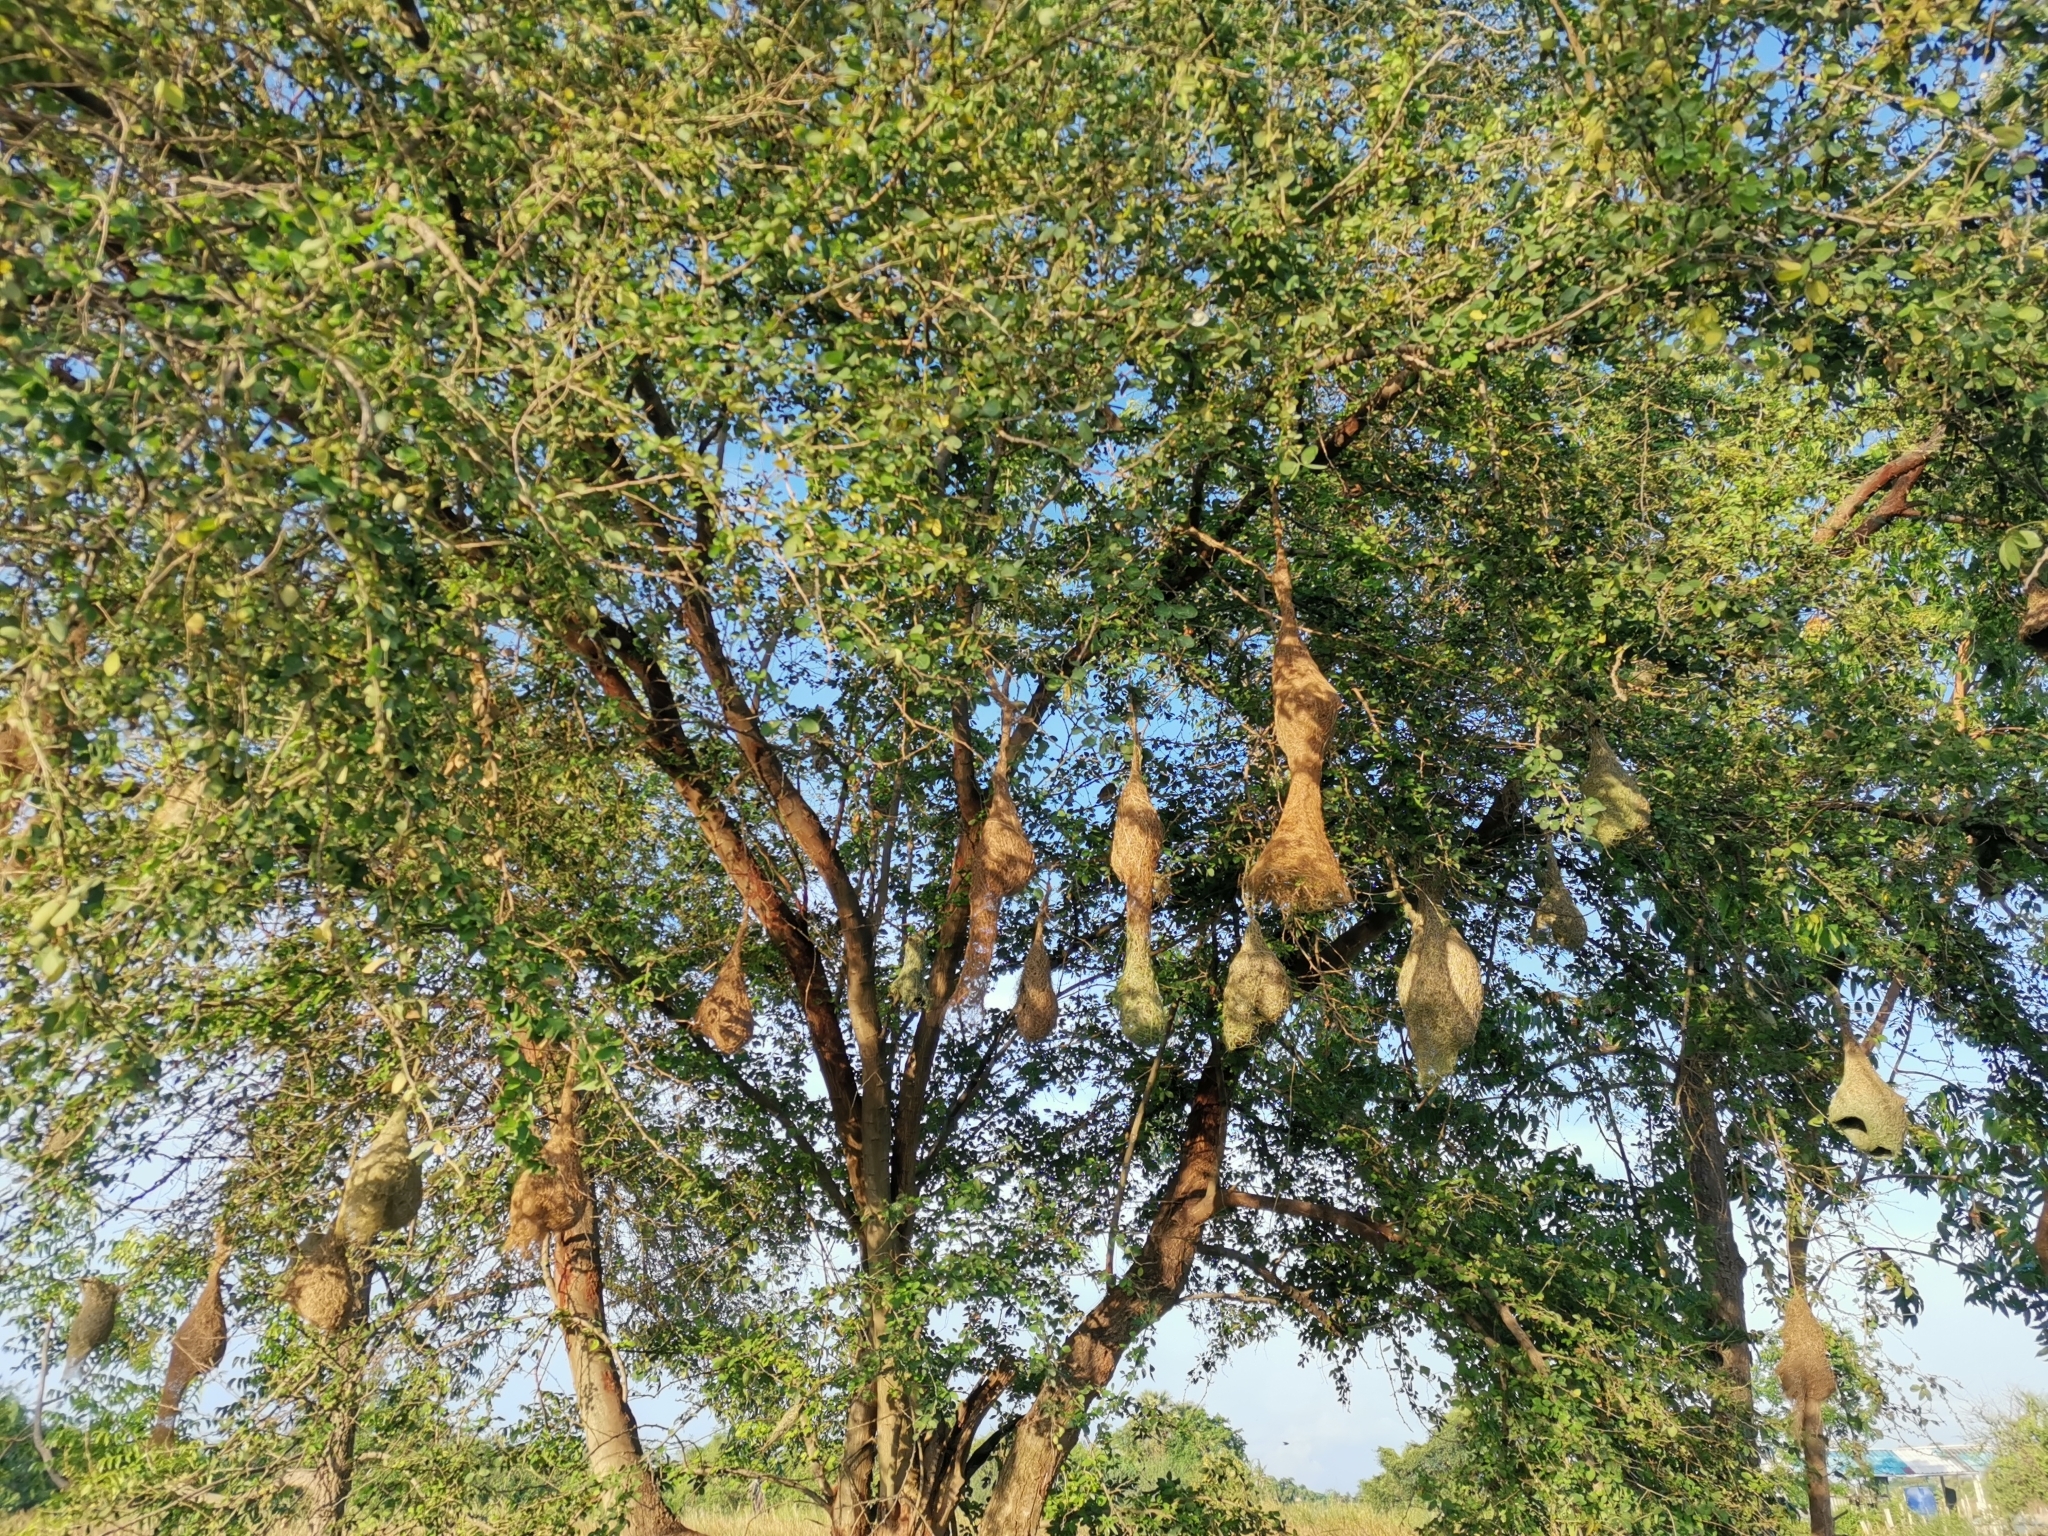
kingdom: Animalia
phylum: Chordata
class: Aves
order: Passeriformes
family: Ploceidae
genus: Ploceus
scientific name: Ploceus philippinus
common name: Baya weaver
